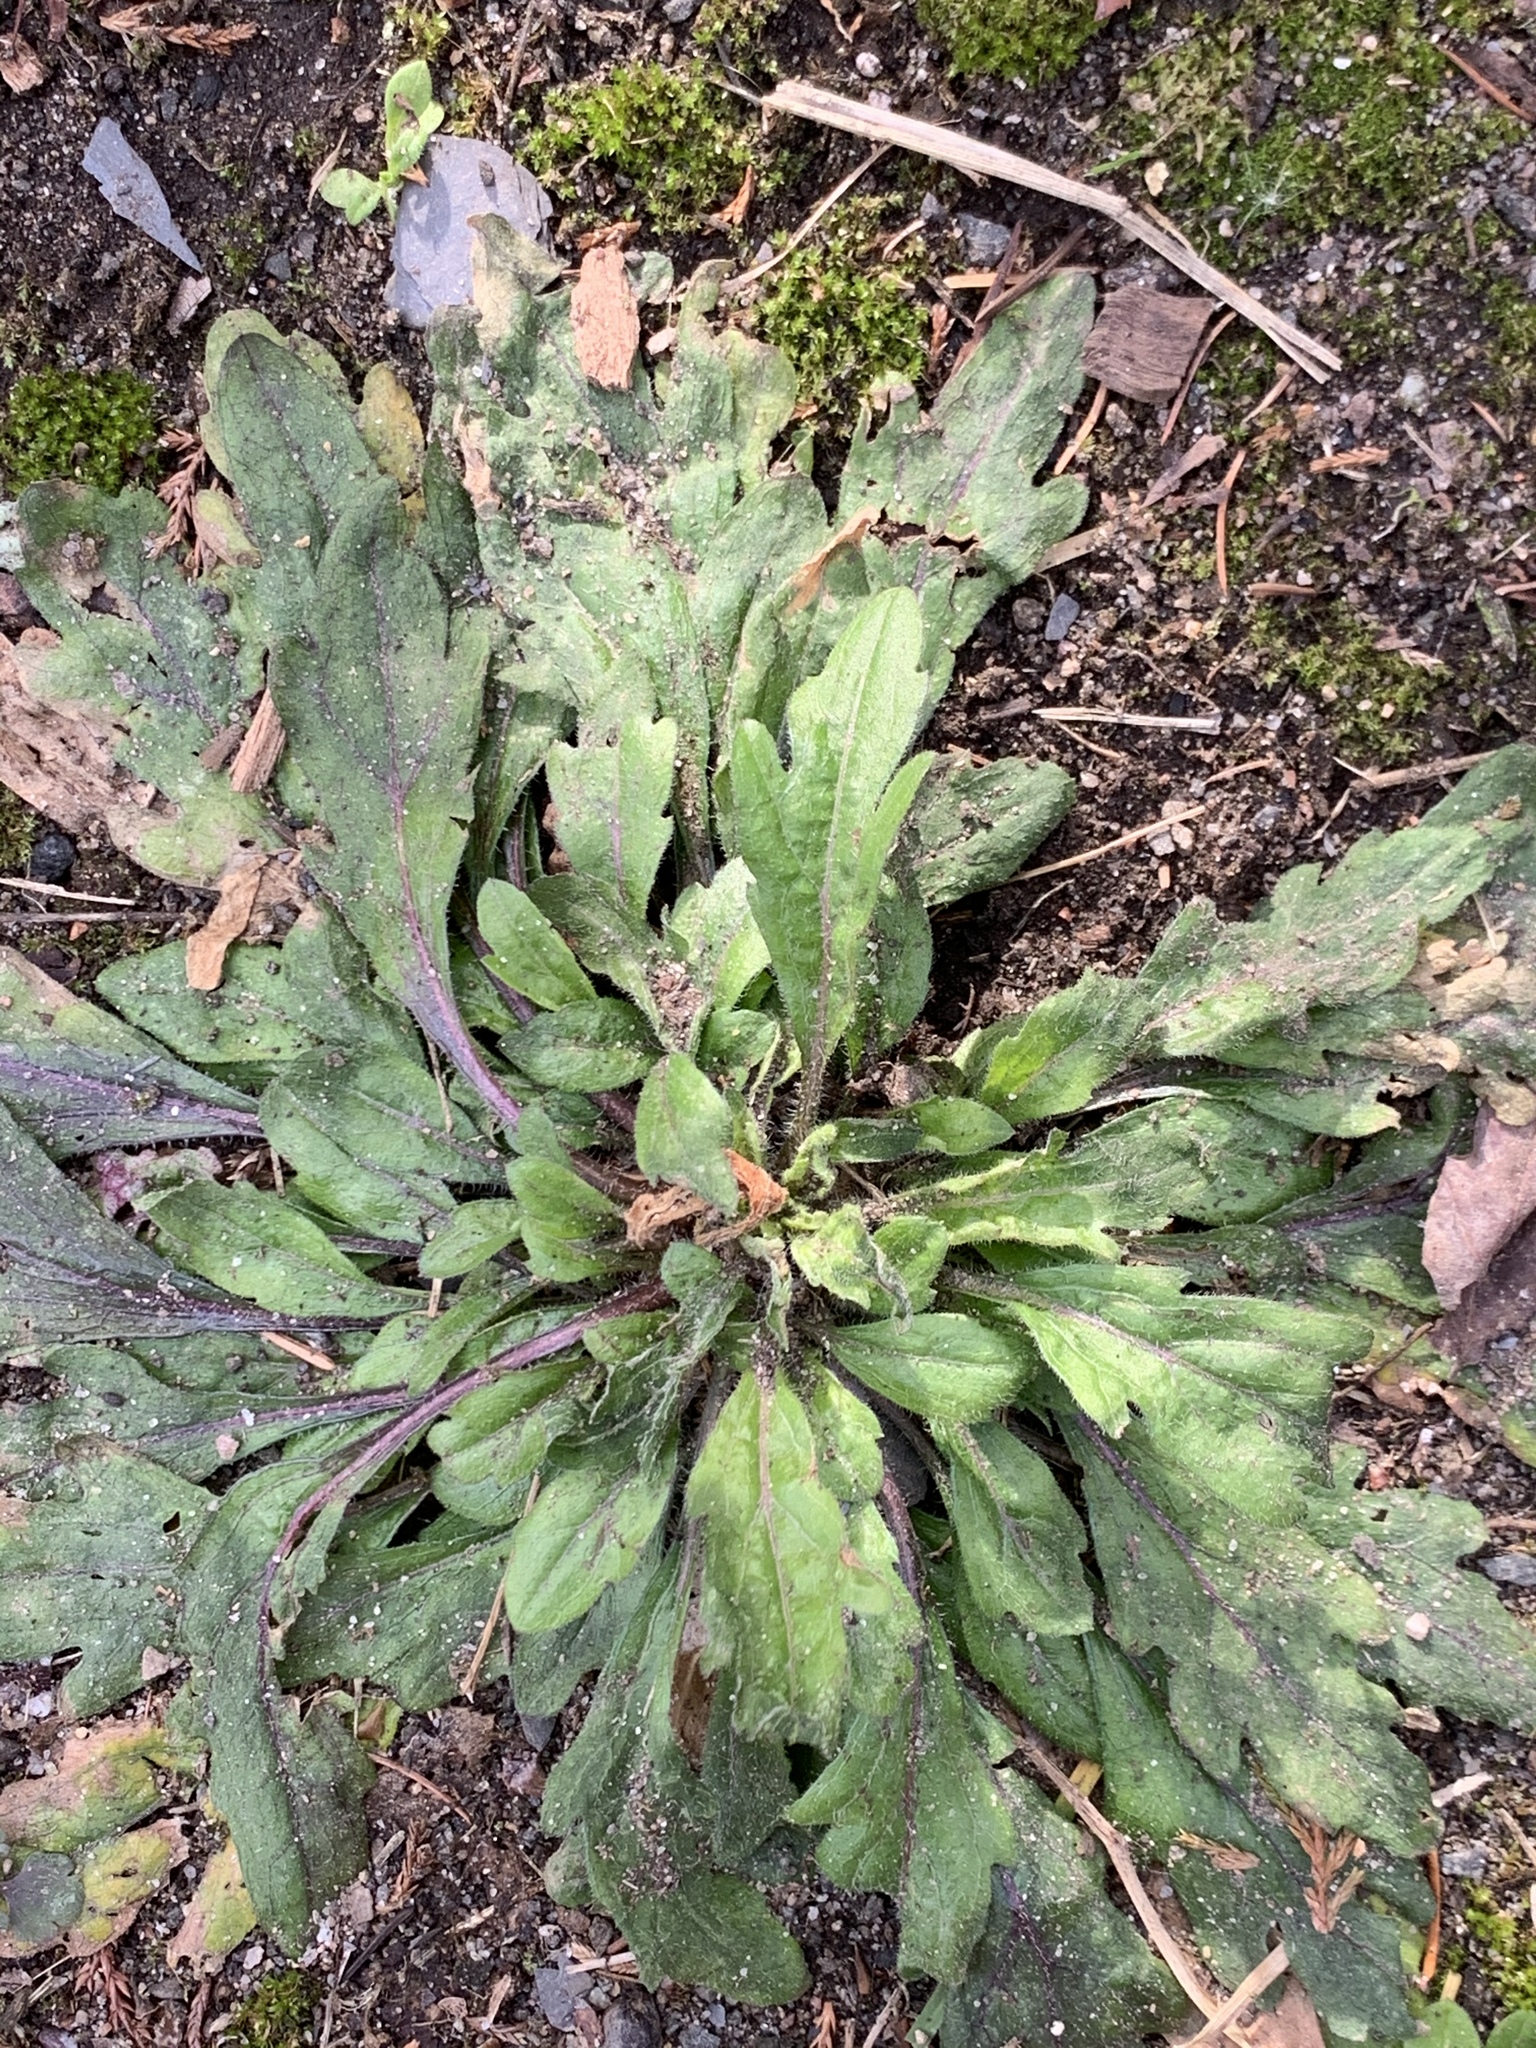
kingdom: Plantae
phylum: Tracheophyta
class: Magnoliopsida
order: Asterales
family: Asteraceae
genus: Erigeron
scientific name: Erigeron canadensis
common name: Canadian fleabane
